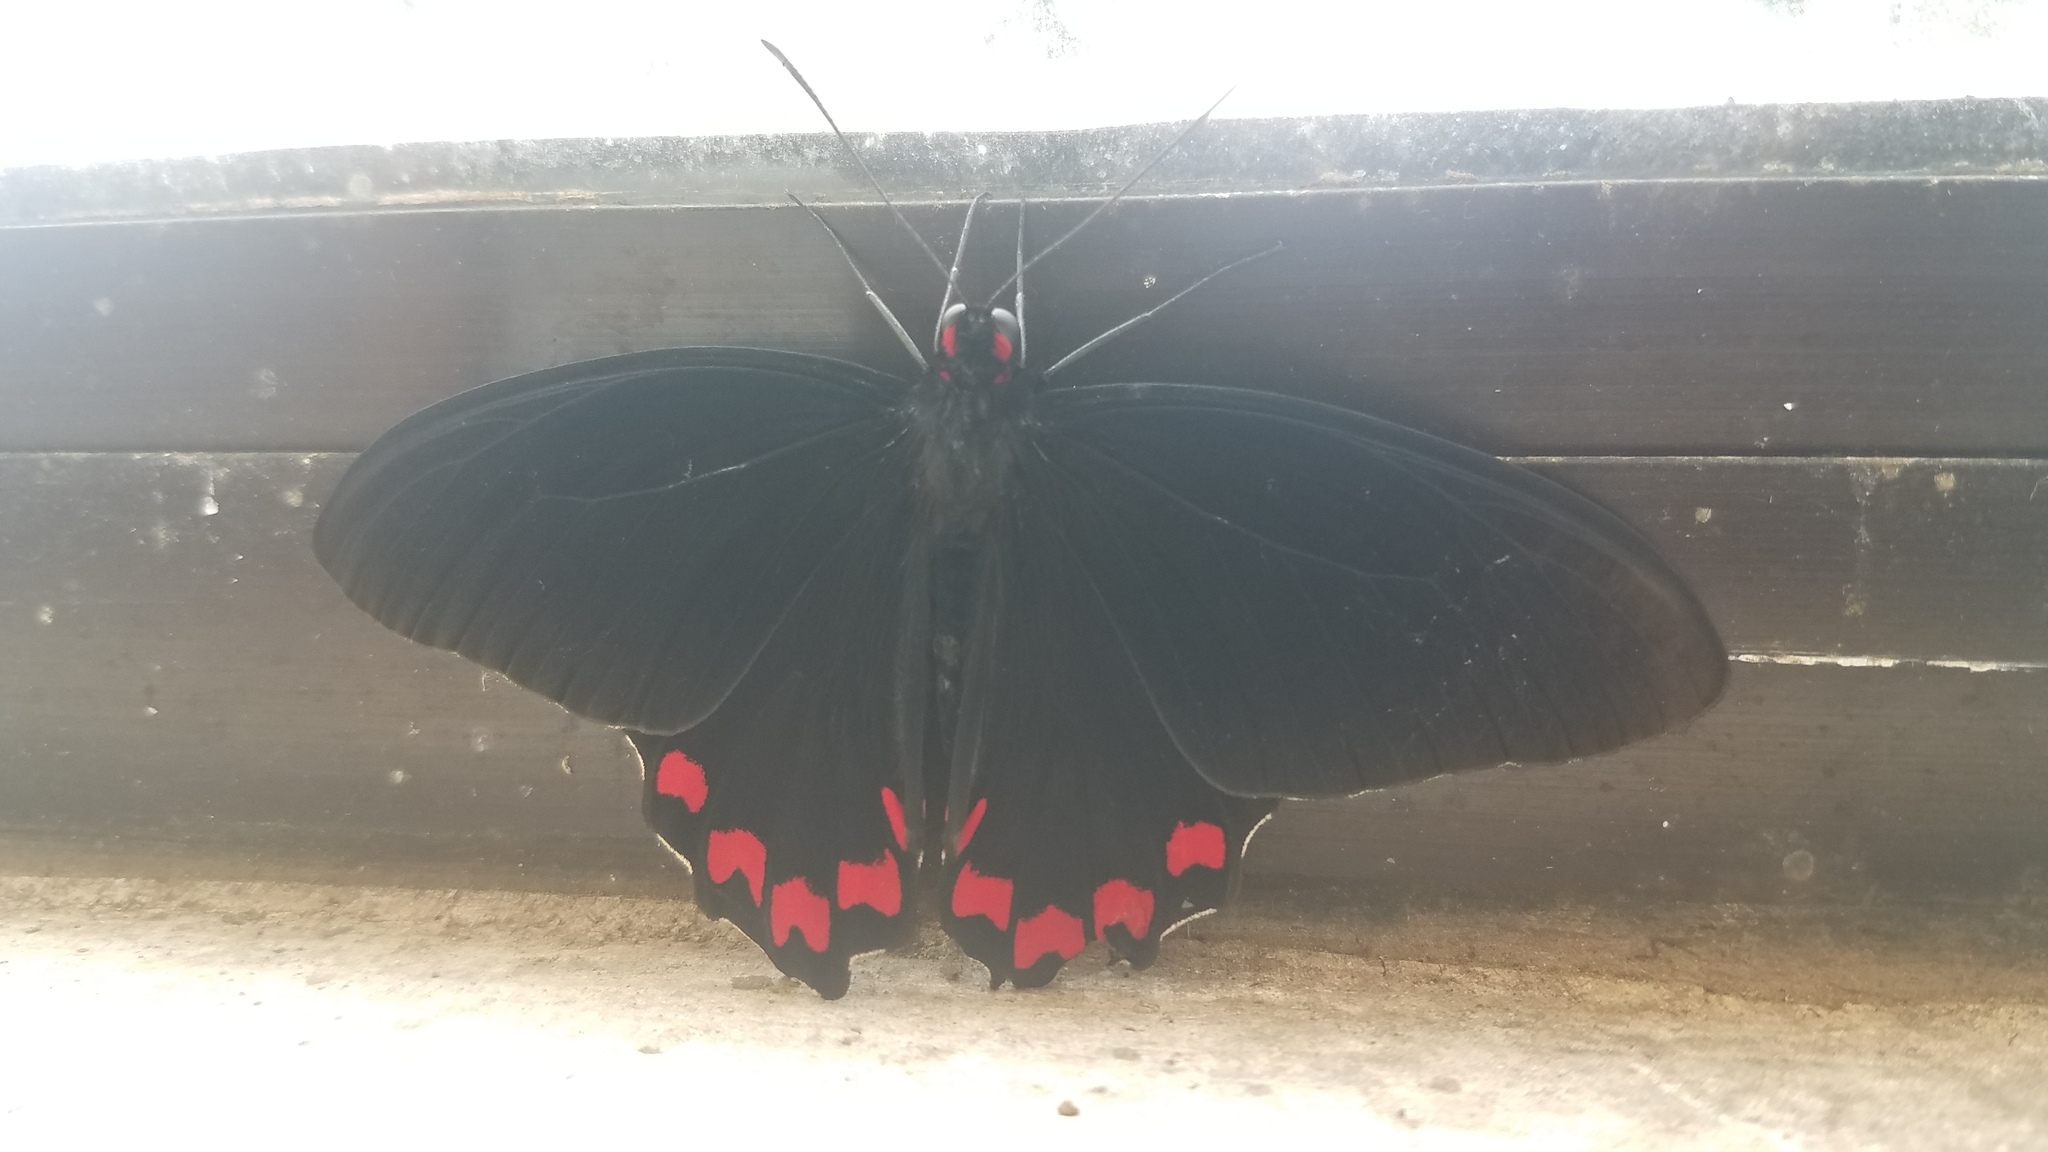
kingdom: Animalia
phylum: Arthropoda
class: Insecta
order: Lepidoptera
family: Papilionidae
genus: Parides
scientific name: Parides montezuma
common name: Montezuma's cattleheart
